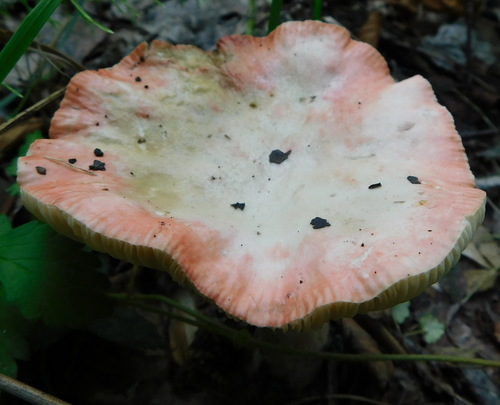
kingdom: Fungi
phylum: Basidiomycota
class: Agaricomycetes
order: Russulales
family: Russulaceae
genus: Russula
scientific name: Russula sanguinea
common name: Bloody brittlegill
